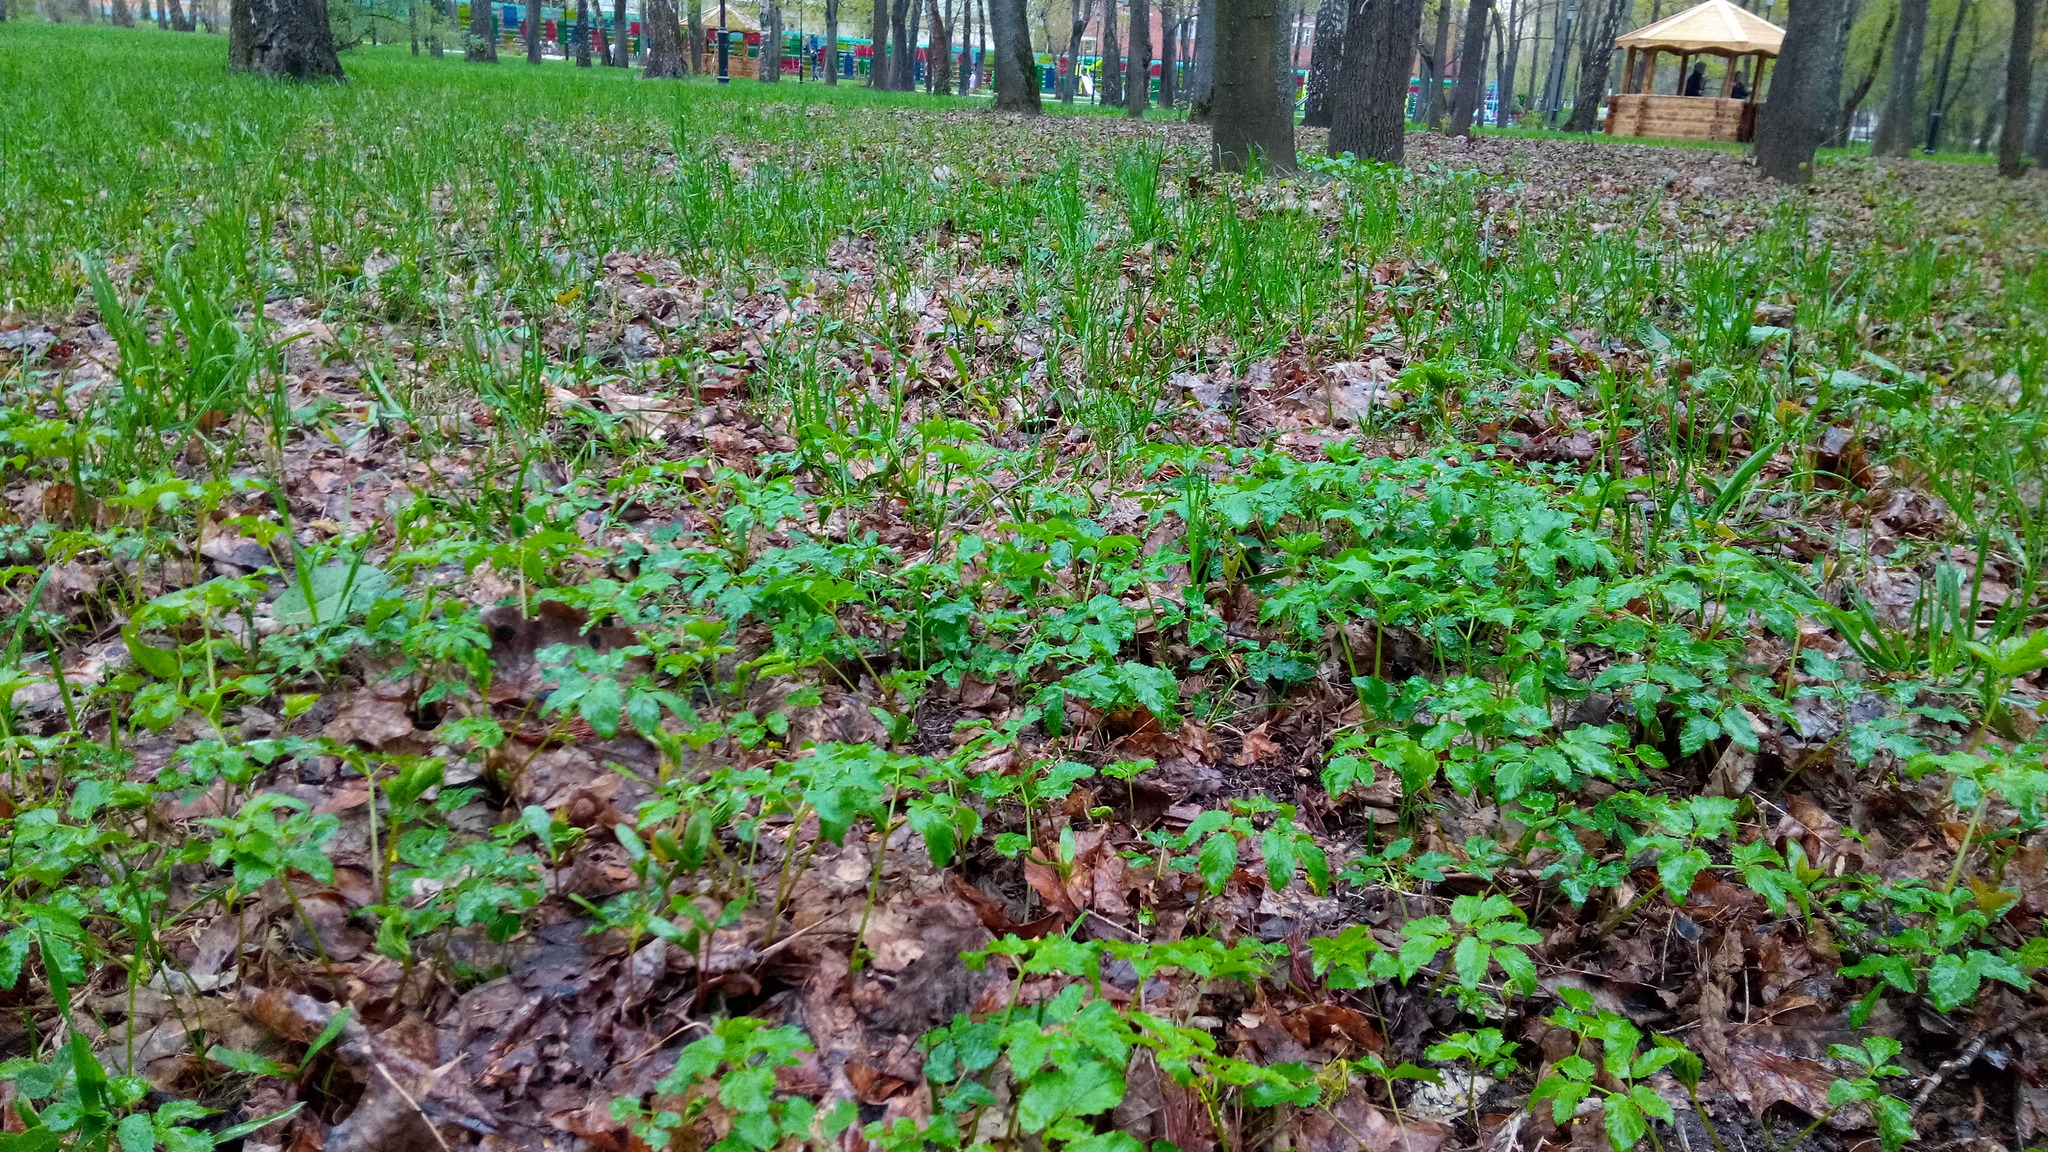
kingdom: Plantae
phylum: Tracheophyta
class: Magnoliopsida
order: Apiales
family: Apiaceae
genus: Aegopodium
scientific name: Aegopodium podagraria
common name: Ground-elder
